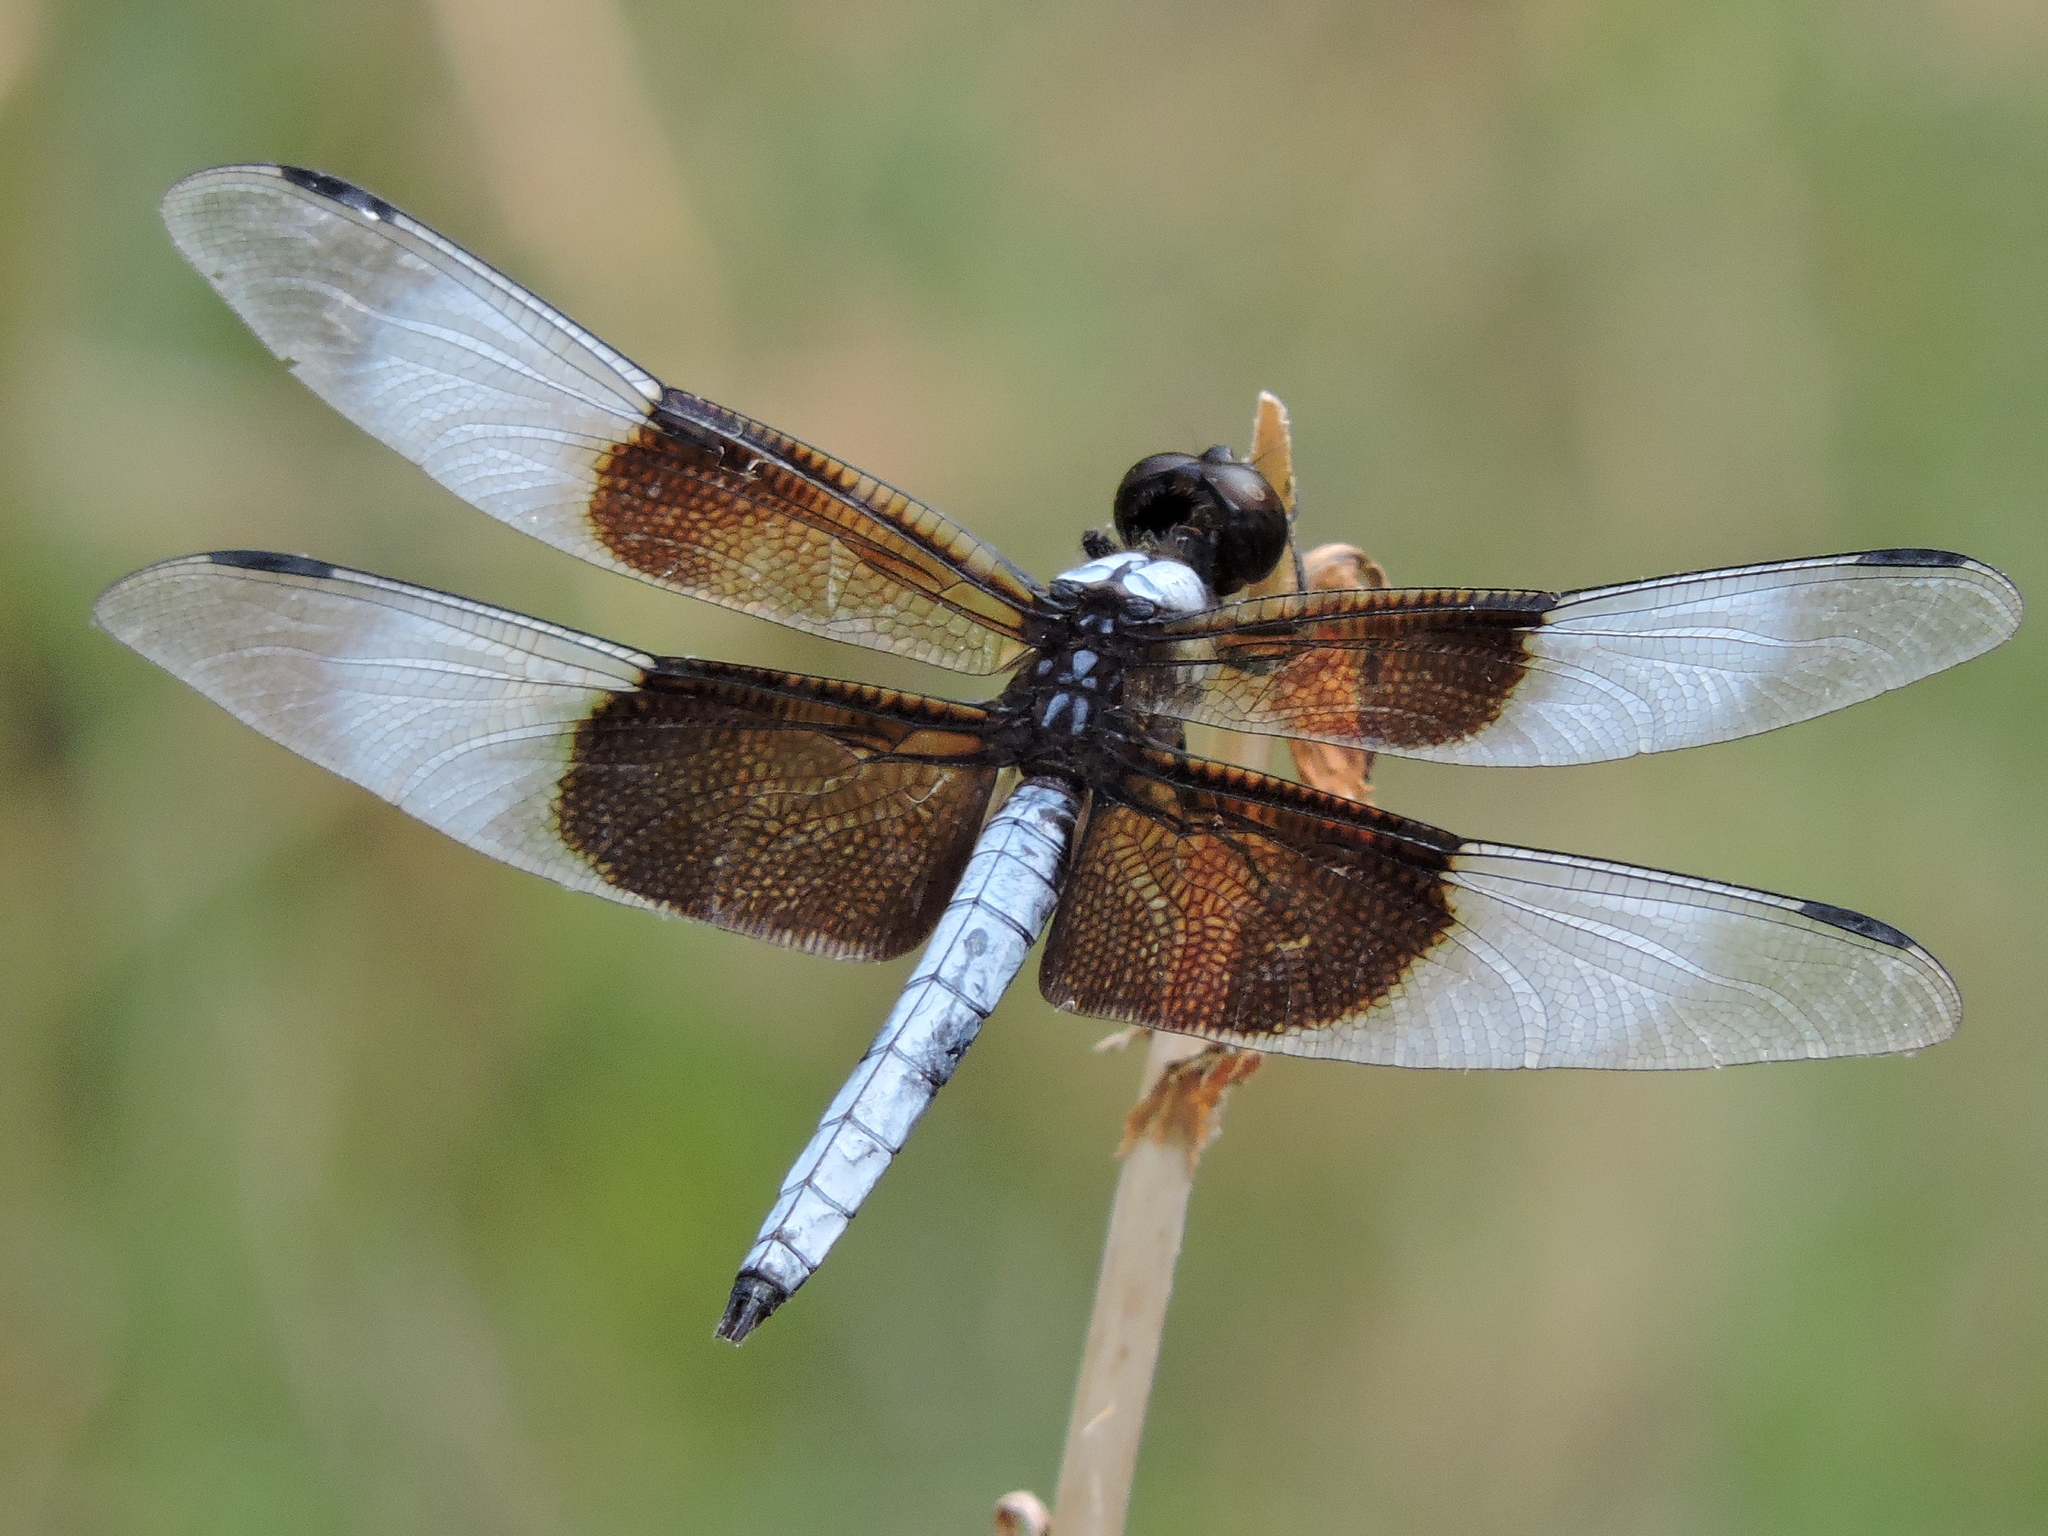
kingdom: Animalia
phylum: Arthropoda
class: Insecta
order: Odonata
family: Libellulidae
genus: Libellula
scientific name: Libellula luctuosa
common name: Widow skimmer
